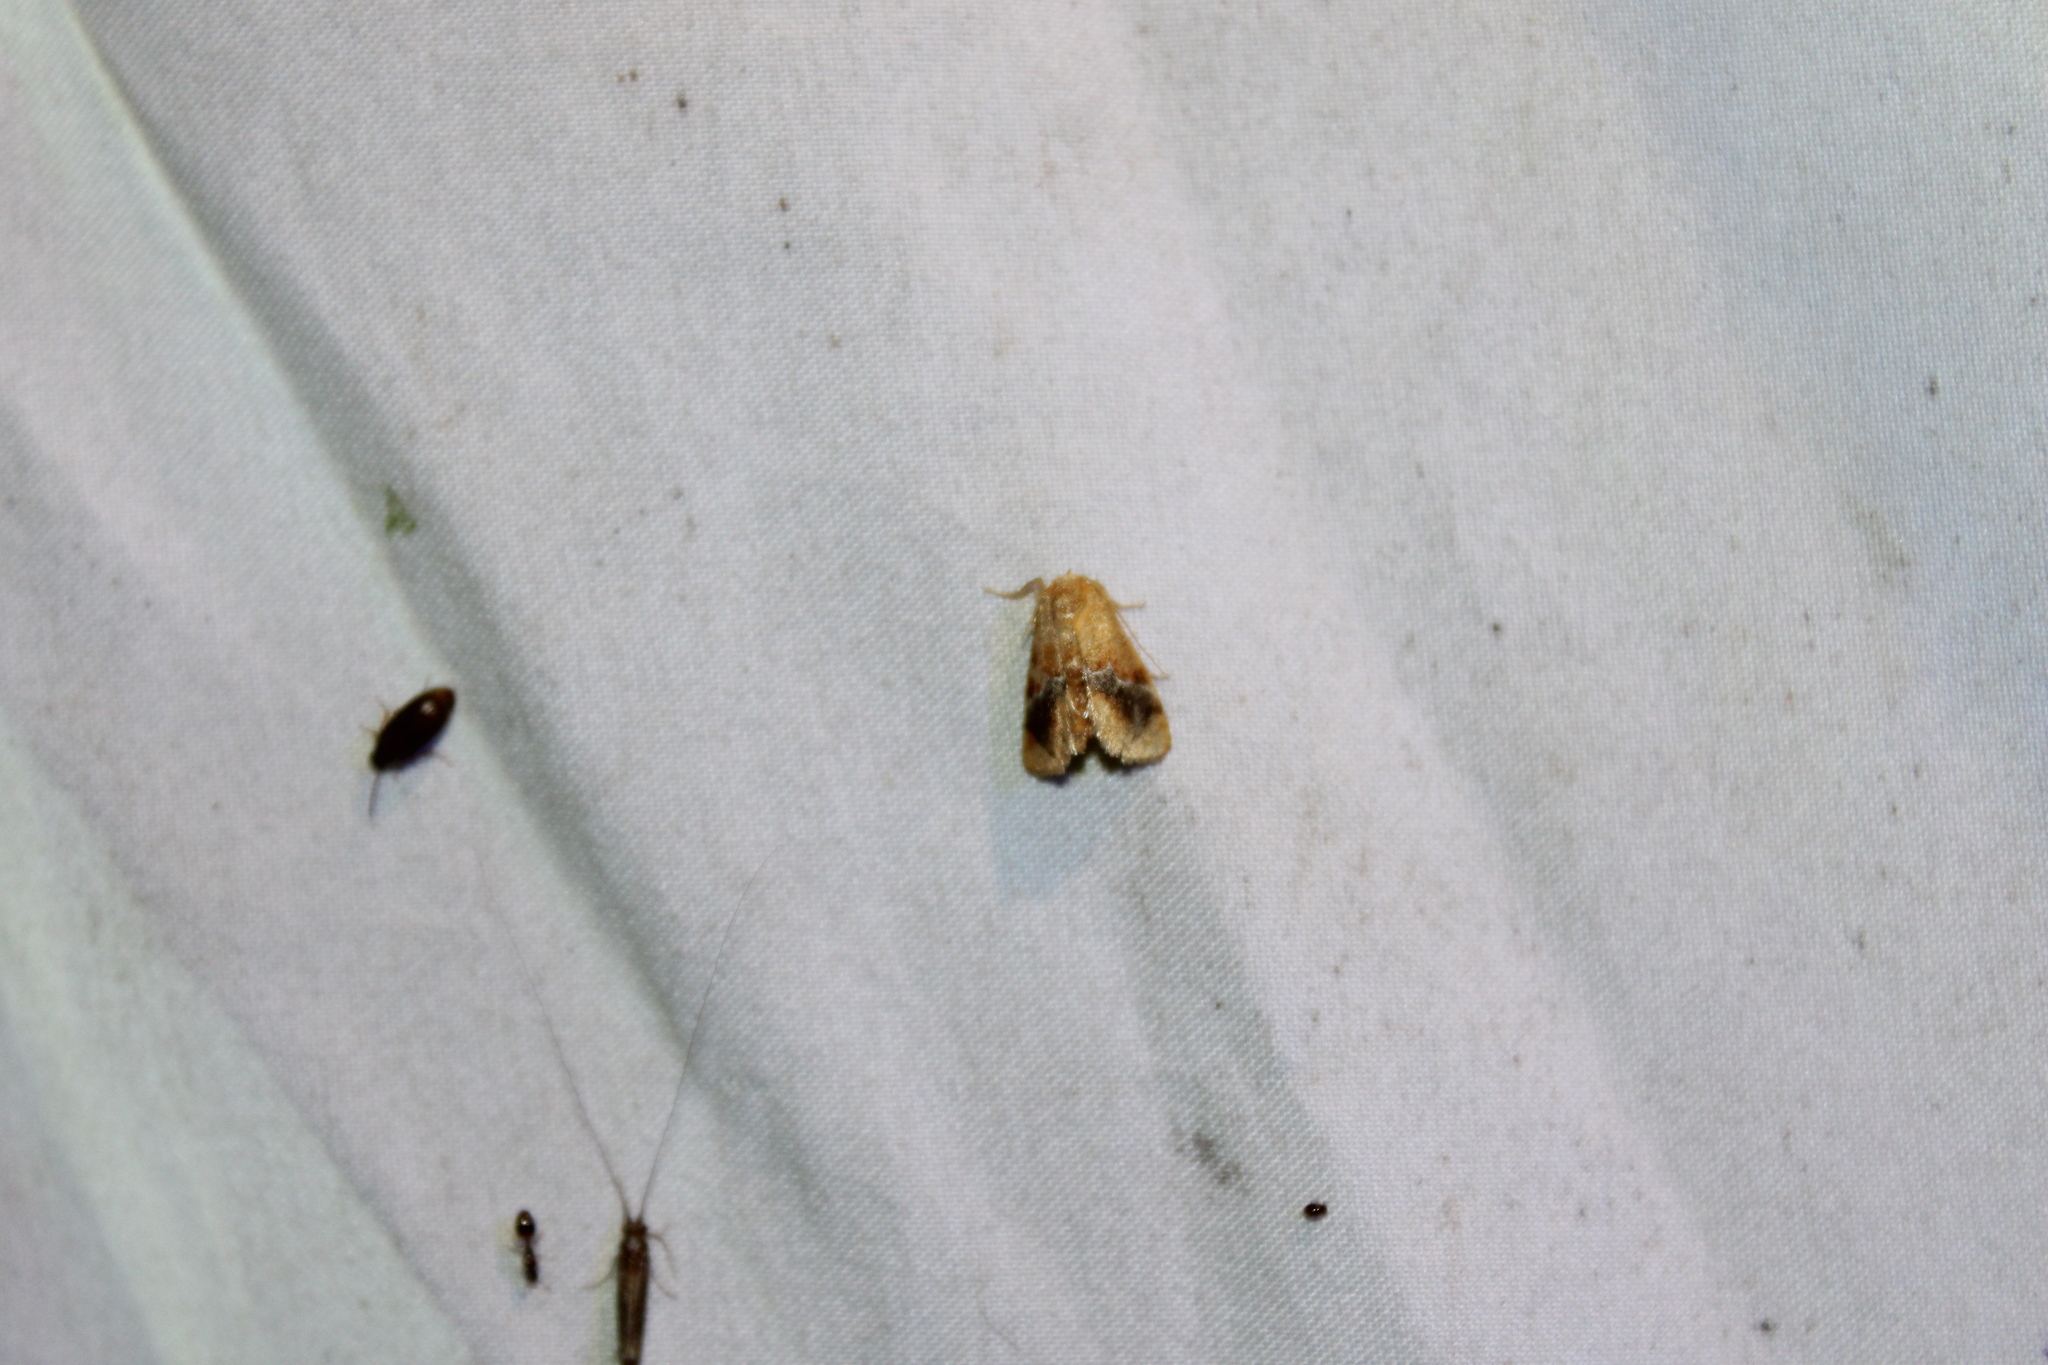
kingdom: Animalia
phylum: Arthropoda
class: Insecta
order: Lepidoptera
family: Limacodidae
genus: Lithacodes
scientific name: Lithacodes fasciola
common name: Yellow-shouldered slug moth
